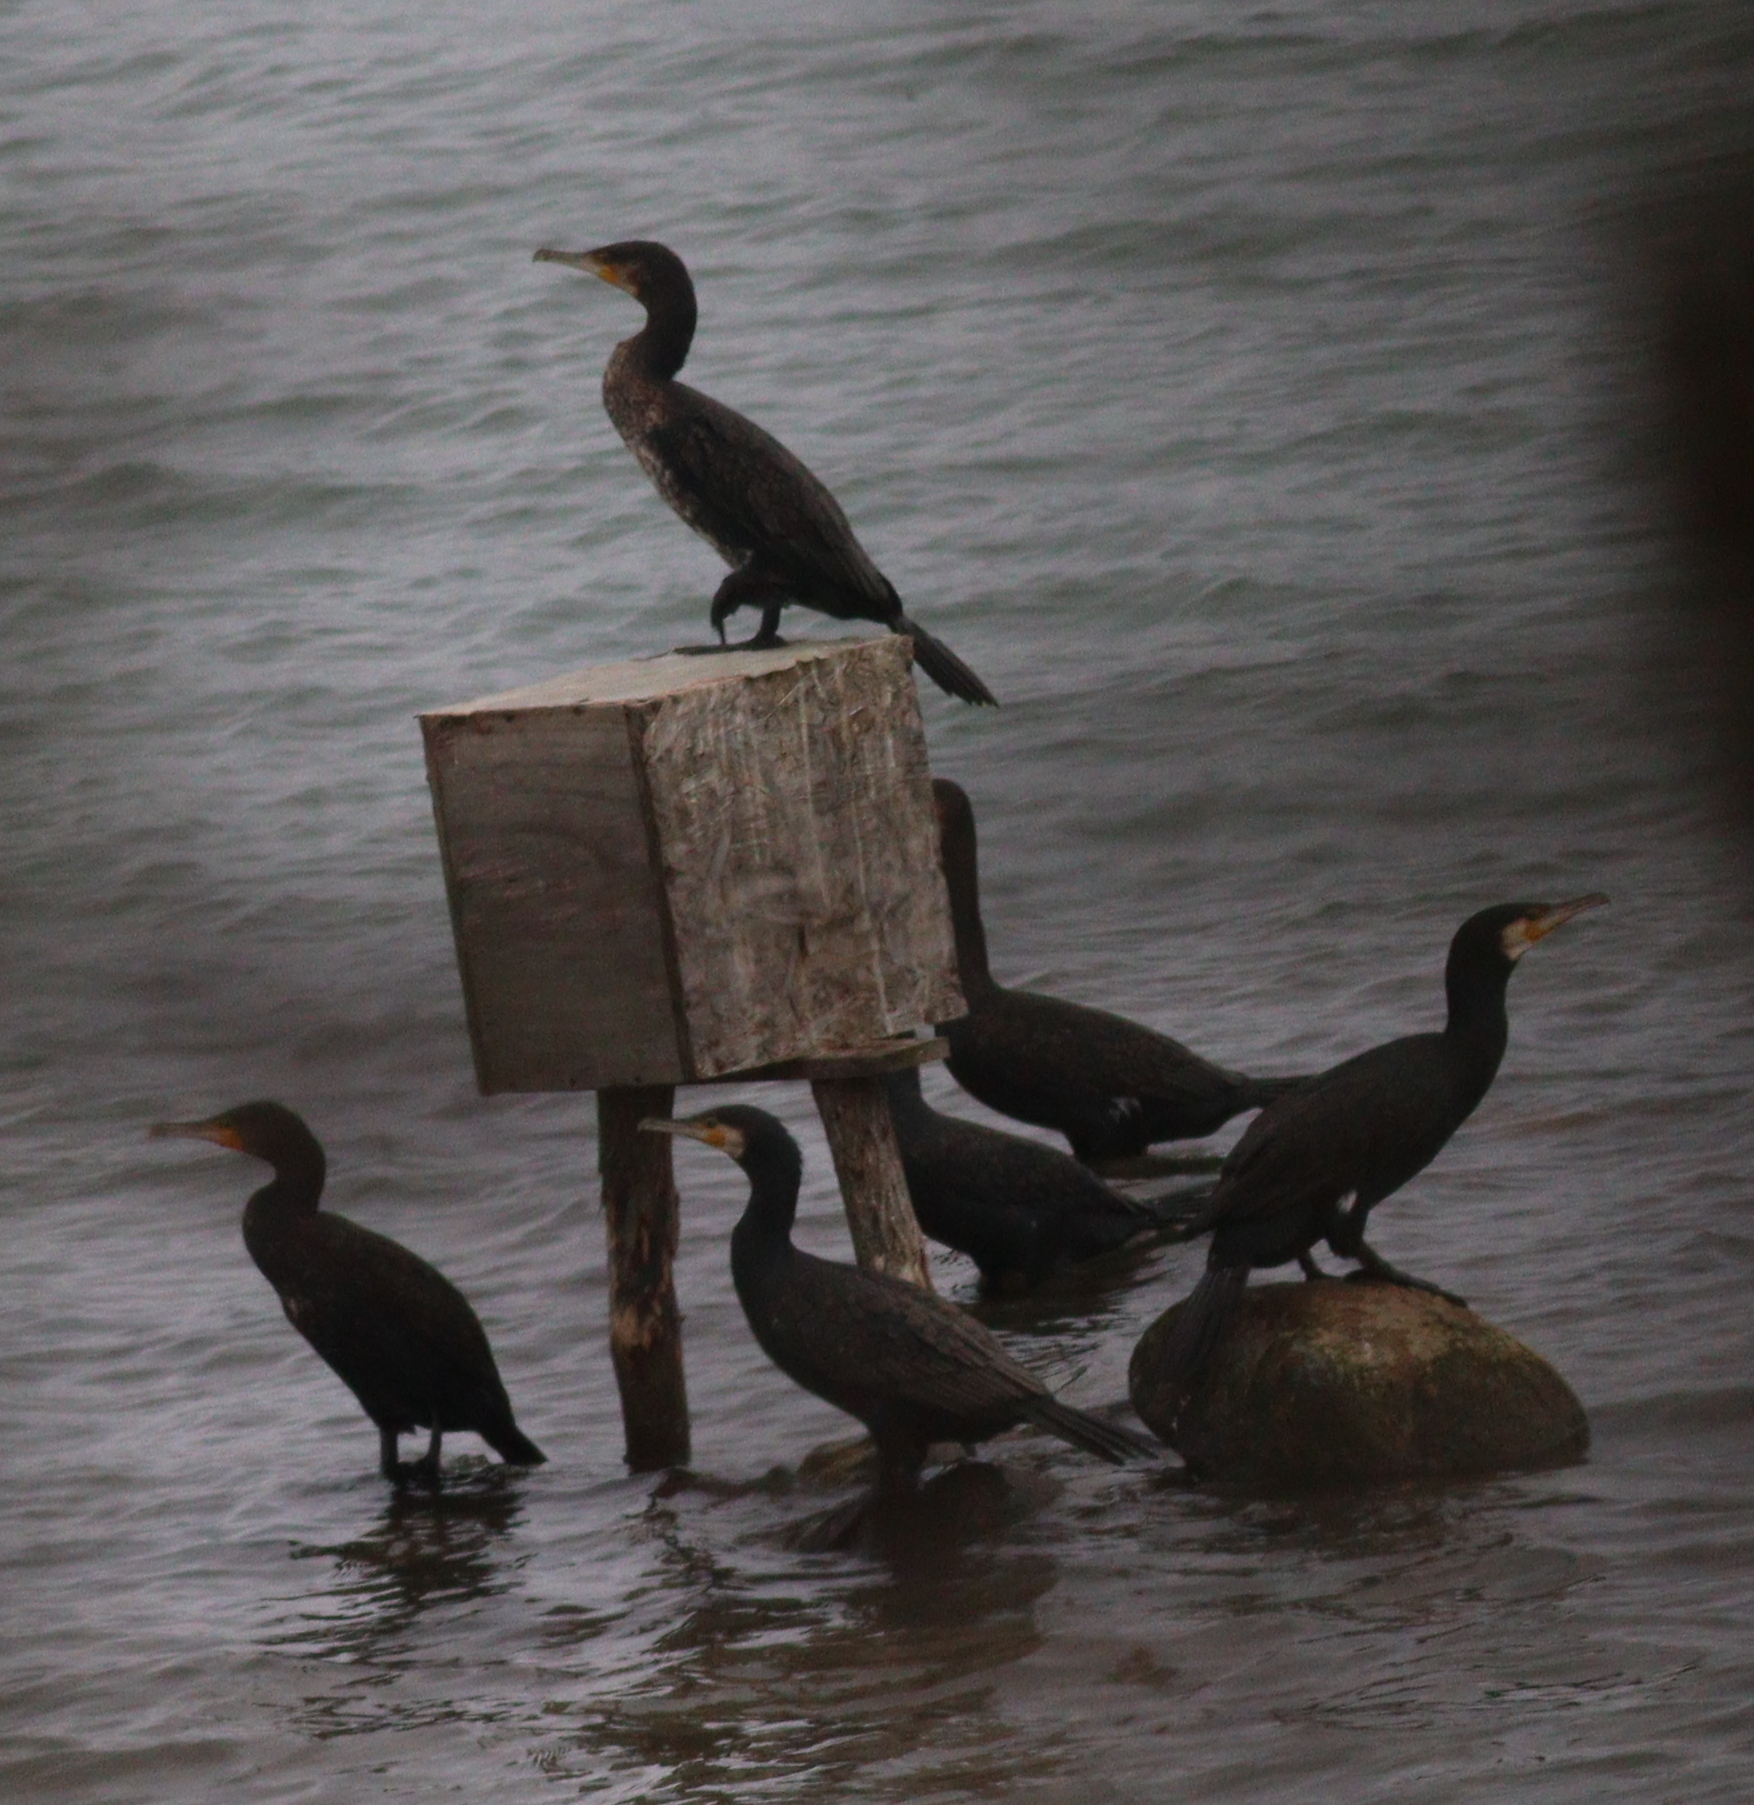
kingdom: Animalia
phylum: Chordata
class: Aves
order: Suliformes
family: Phalacrocoracidae
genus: Phalacrocorax
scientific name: Phalacrocorax carbo
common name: Great cormorant
